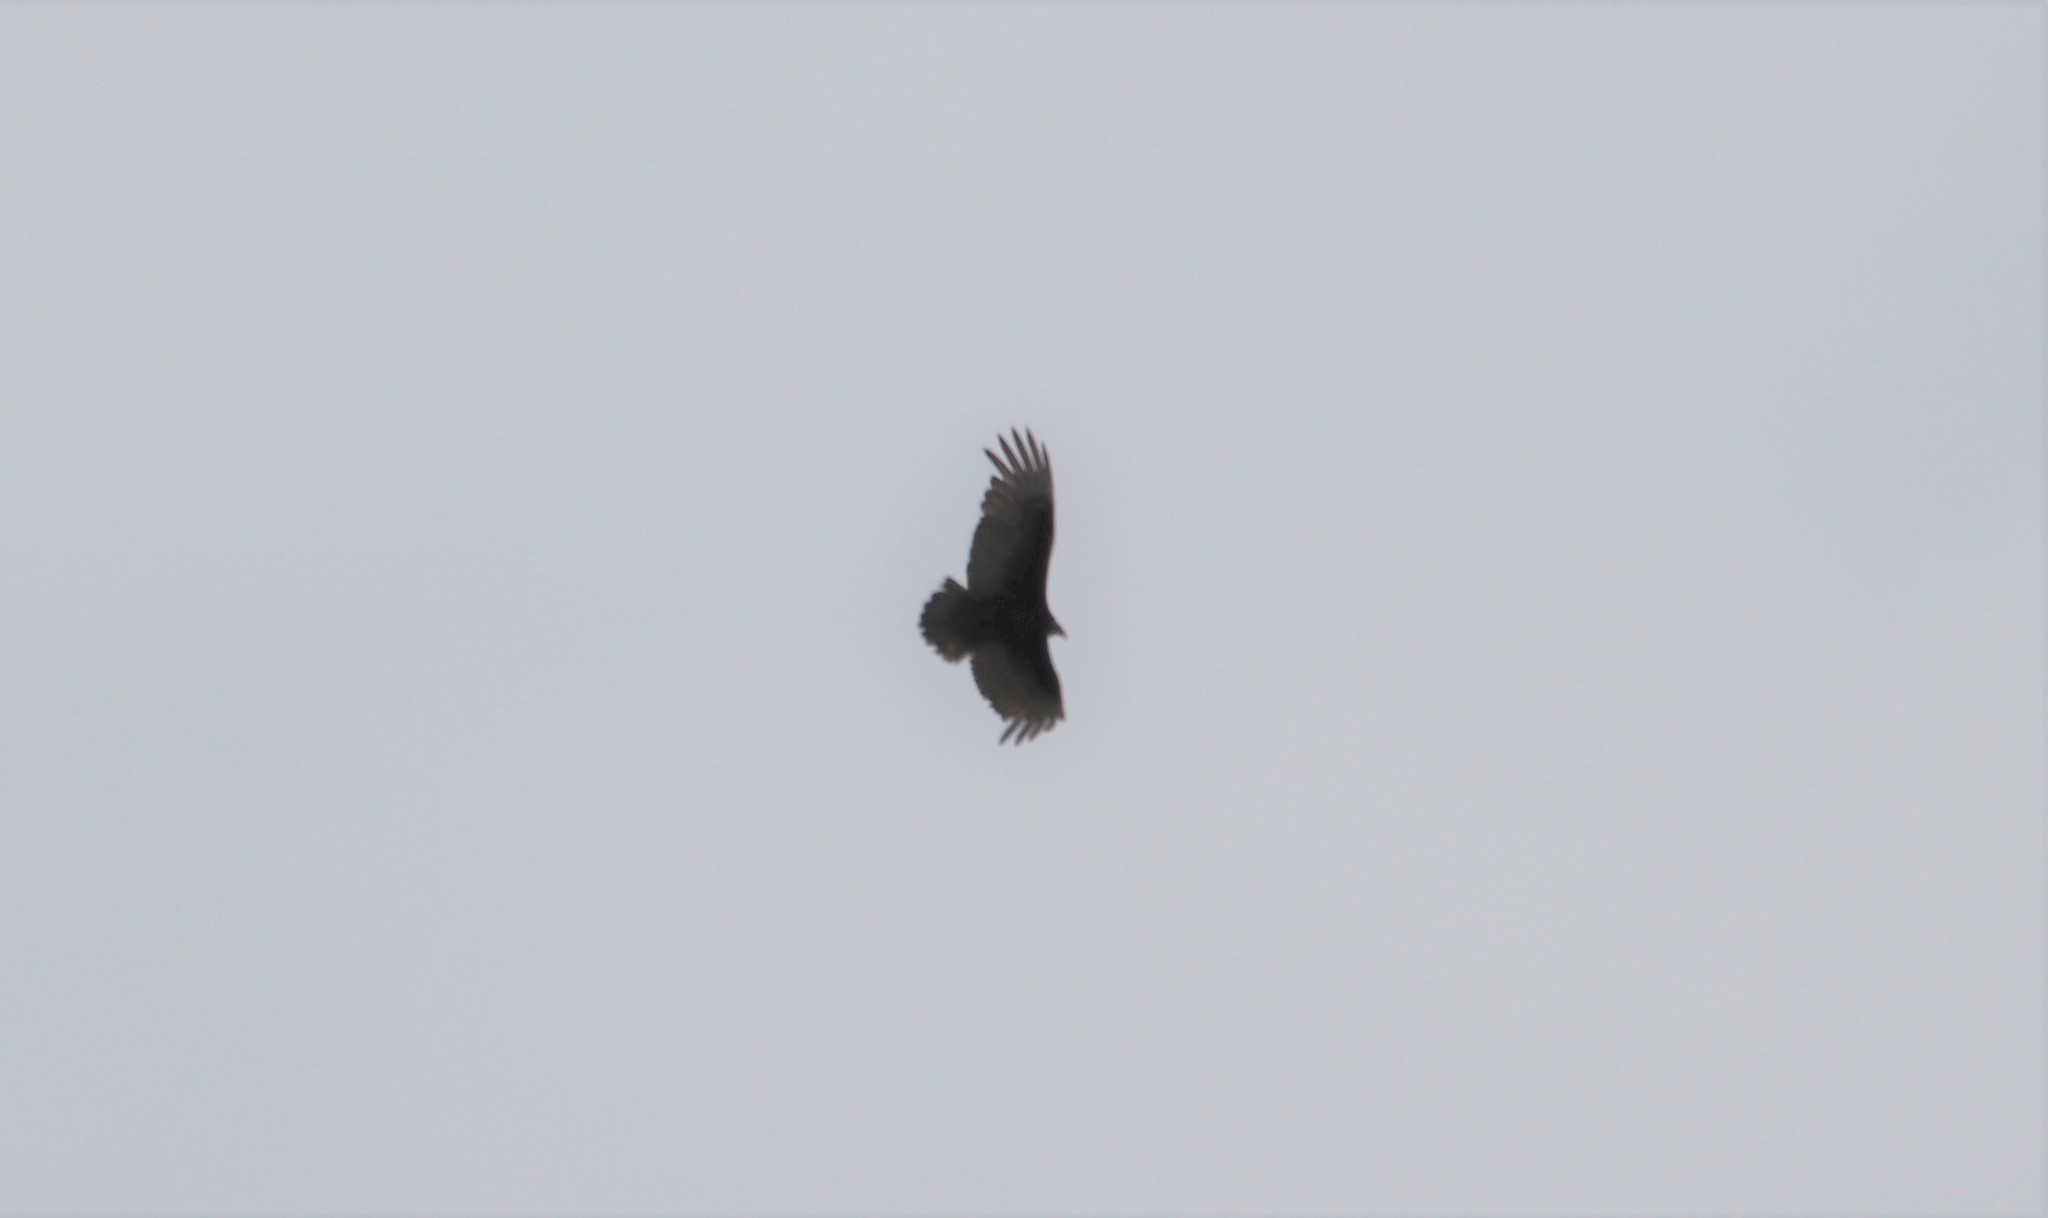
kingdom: Animalia
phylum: Chordata
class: Aves
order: Accipitriformes
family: Cathartidae
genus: Cathartes
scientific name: Cathartes aura
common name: Turkey vulture
